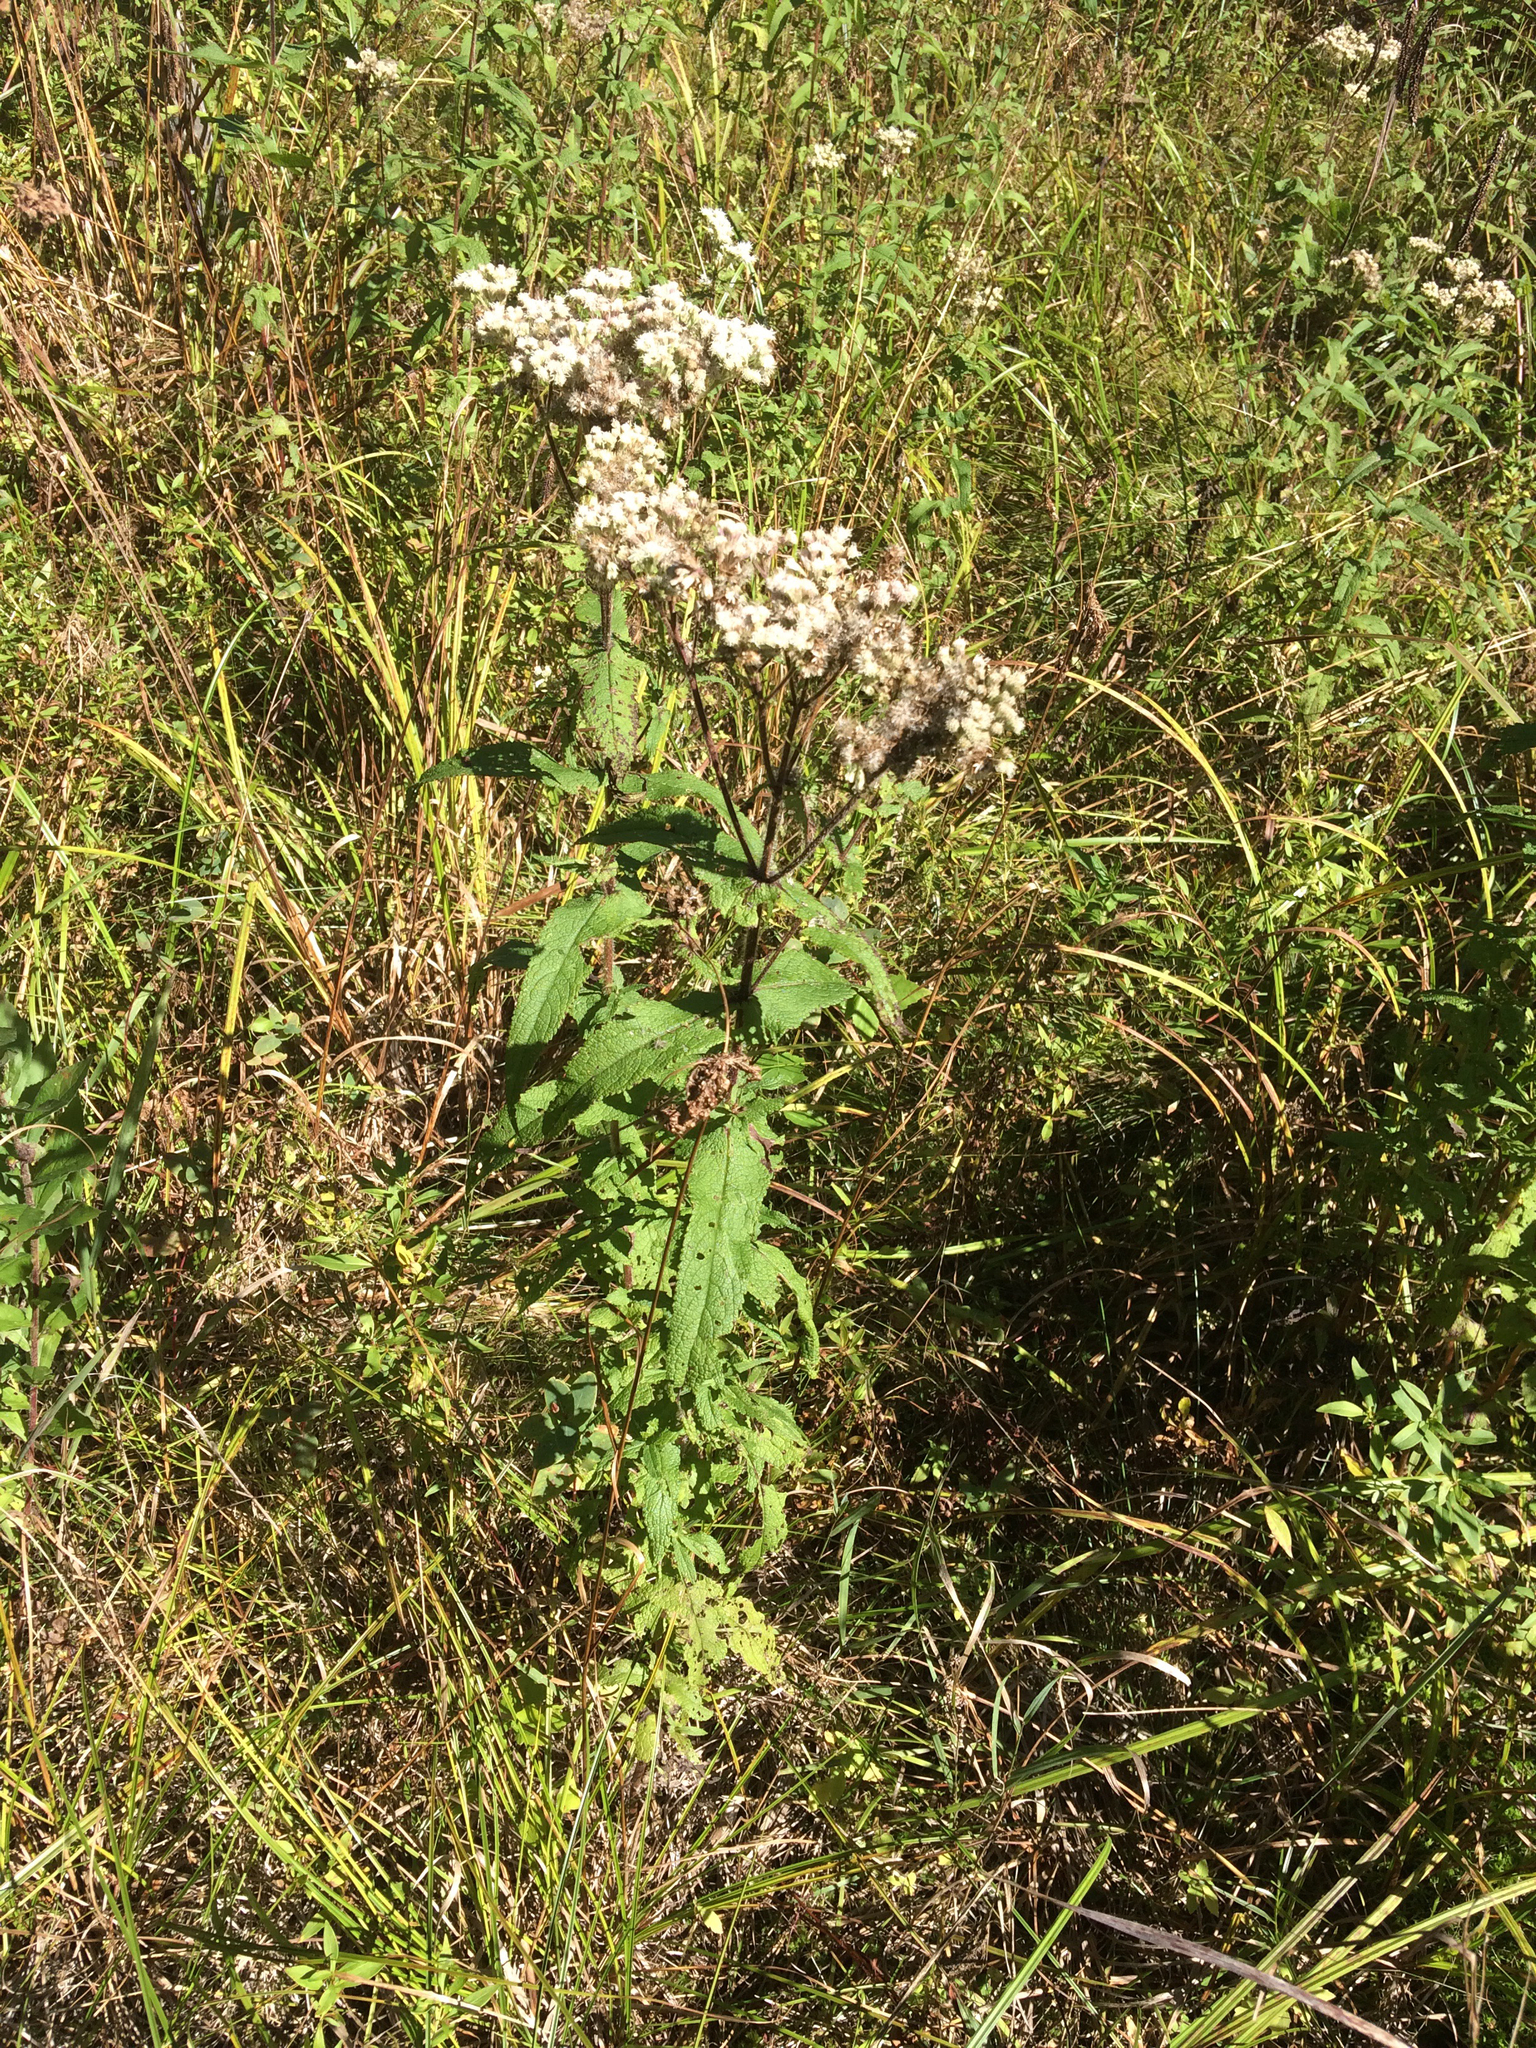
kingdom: Plantae
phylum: Tracheophyta
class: Magnoliopsida
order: Asterales
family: Asteraceae
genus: Eupatorium
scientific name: Eupatorium perfoliatum
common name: Boneset
